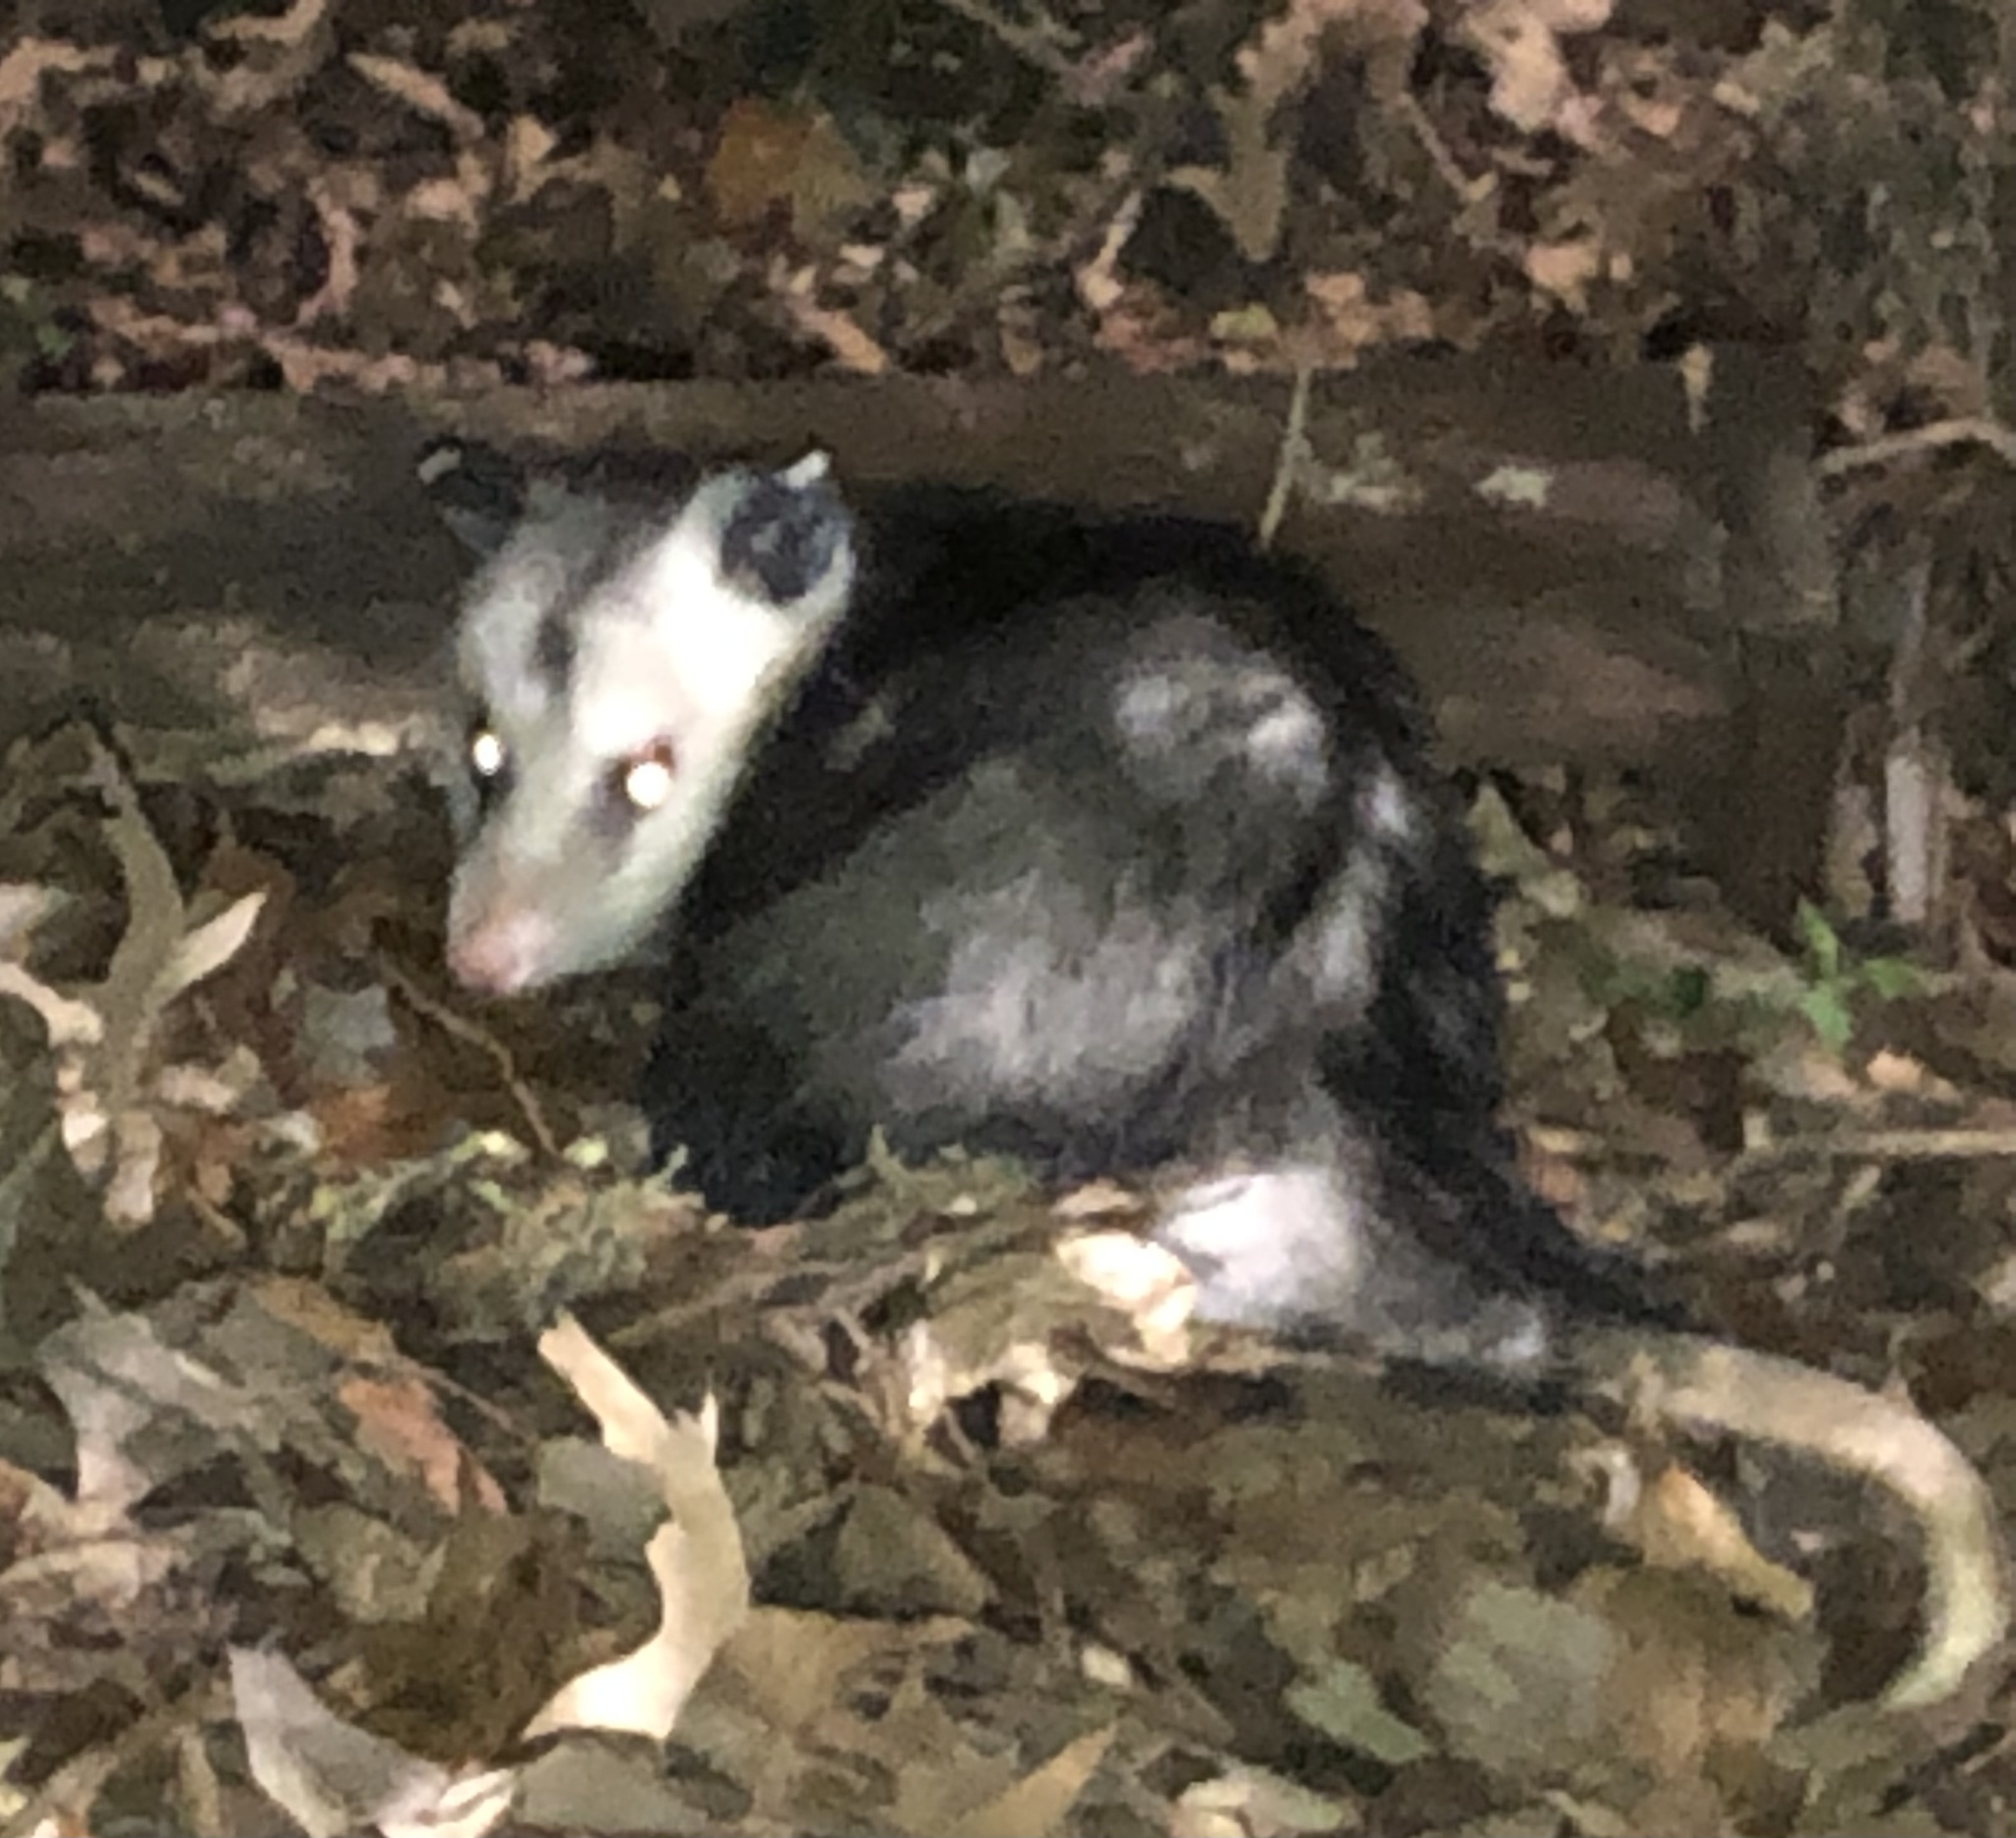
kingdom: Animalia
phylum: Chordata
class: Mammalia
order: Didelphimorphia
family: Didelphidae
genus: Didelphis
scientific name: Didelphis virginiana
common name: Virginia opossum
